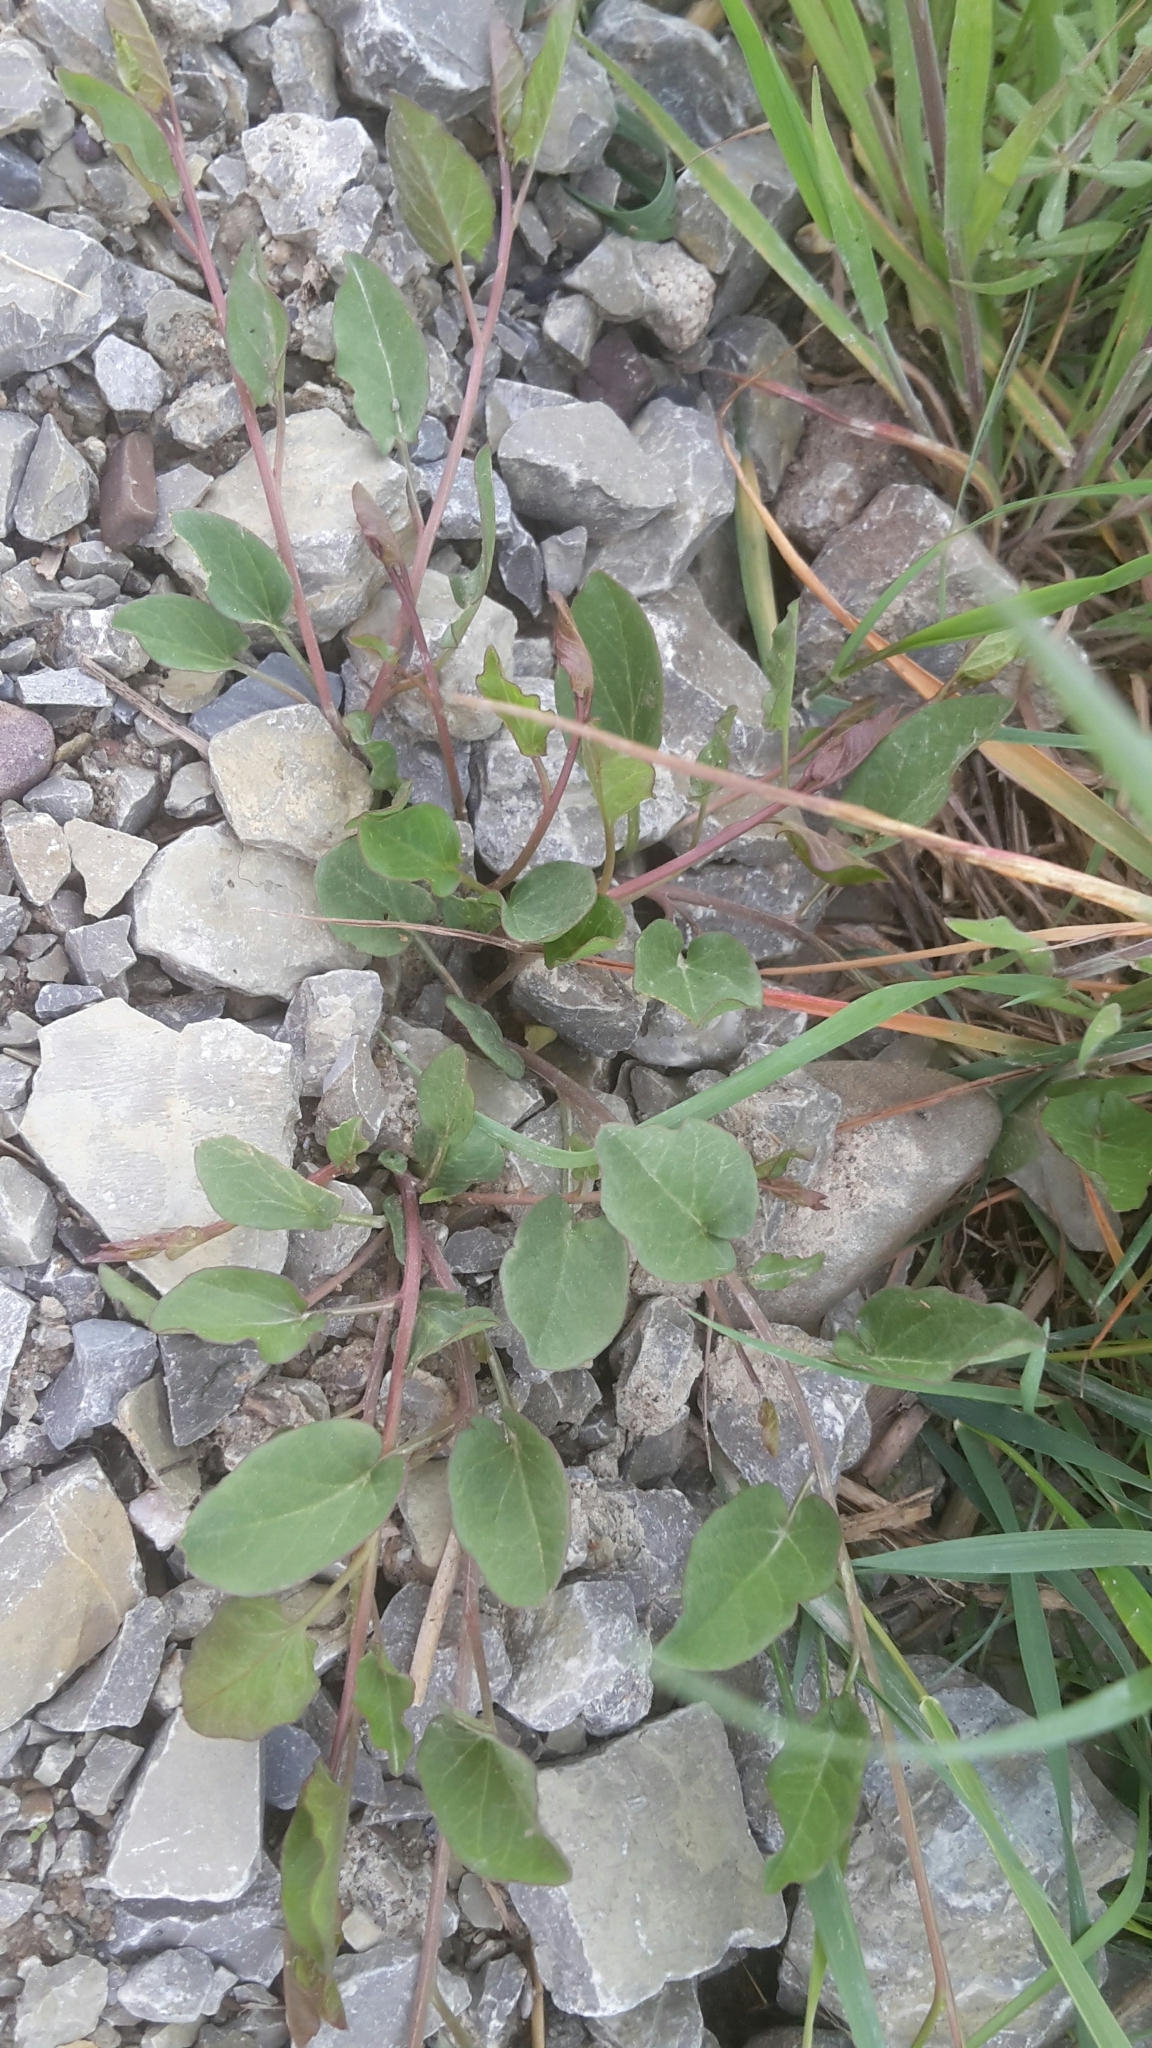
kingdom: Plantae
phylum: Tracheophyta
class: Magnoliopsida
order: Solanales
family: Convolvulaceae
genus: Convolvulus
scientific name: Convolvulus arvensis
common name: Field bindweed
